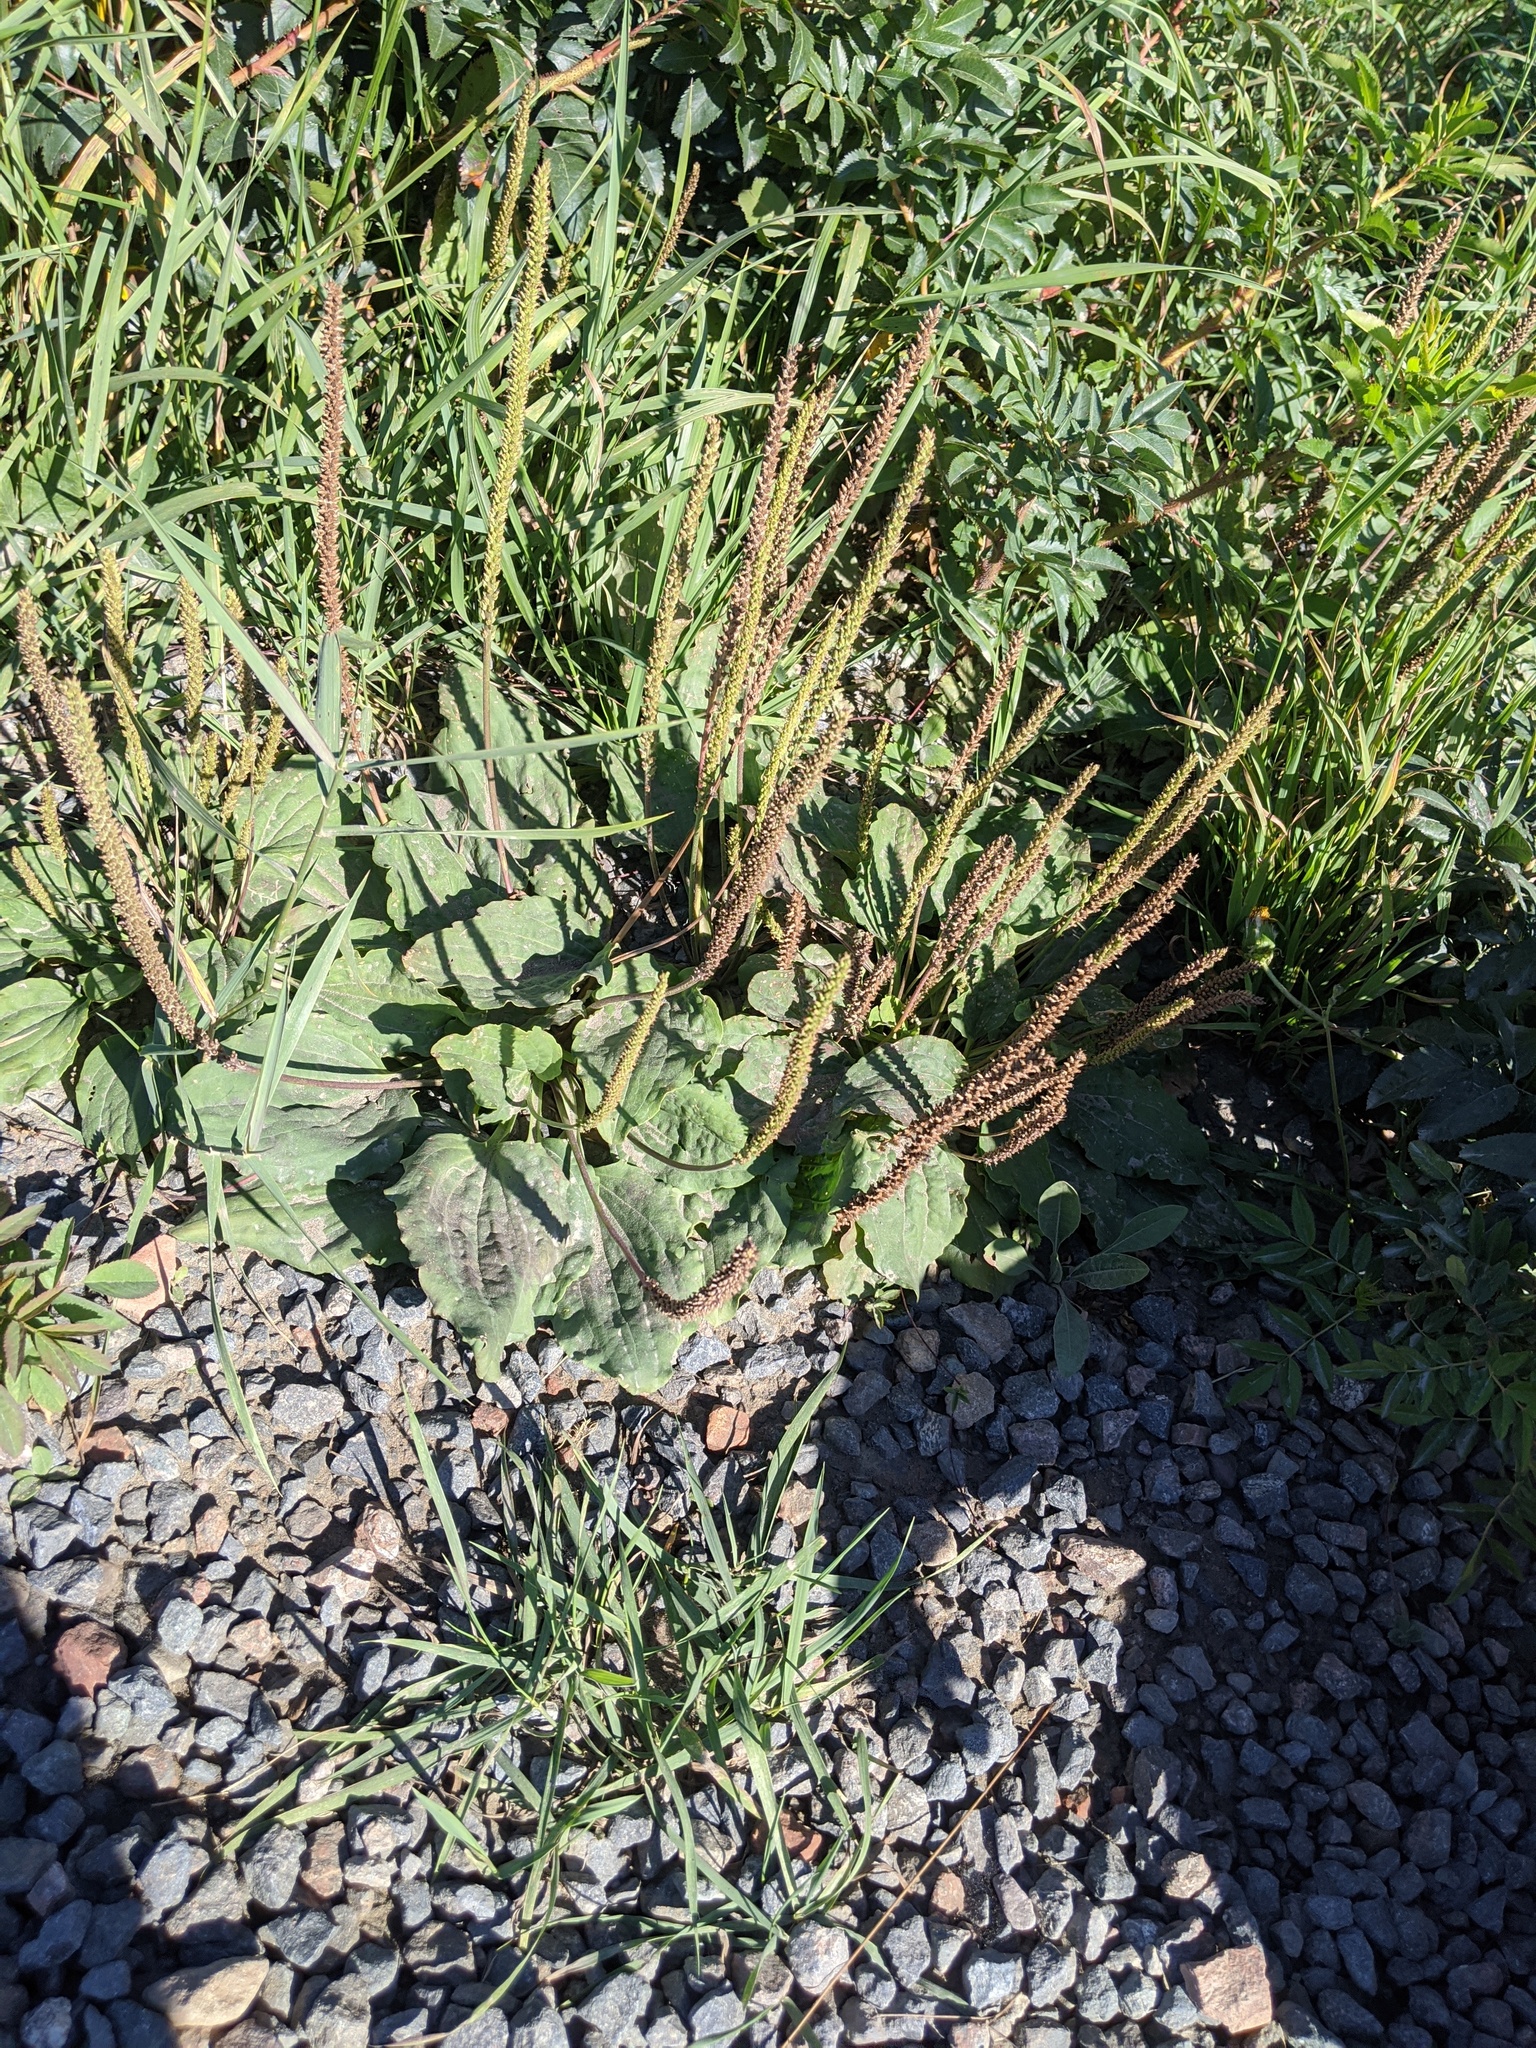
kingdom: Plantae
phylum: Tracheophyta
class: Magnoliopsida
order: Lamiales
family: Plantaginaceae
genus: Plantago
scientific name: Plantago major
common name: Common plantain
